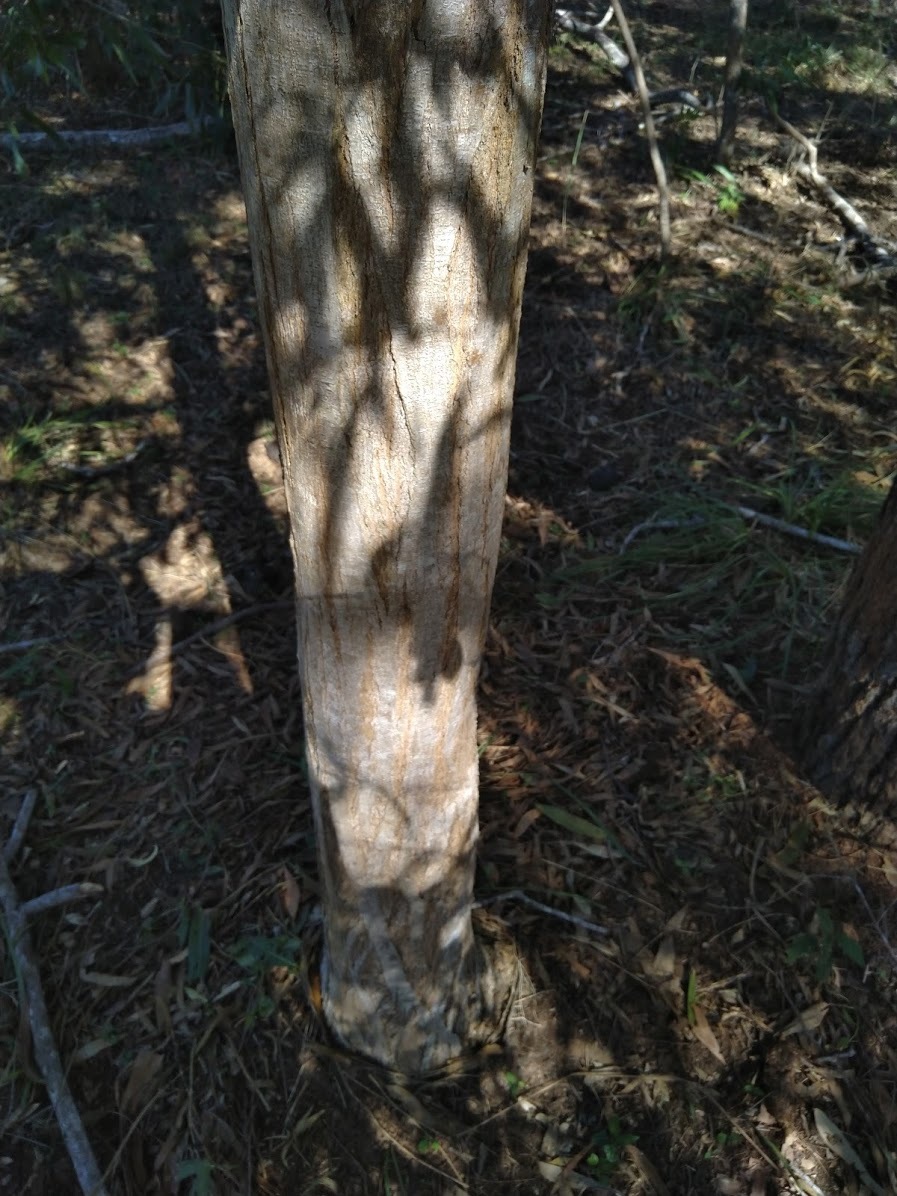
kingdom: Plantae
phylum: Tracheophyta
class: Magnoliopsida
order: Fabales
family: Fabaceae
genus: Acacia
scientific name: Acacia maidenii
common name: Maiden's wattle
